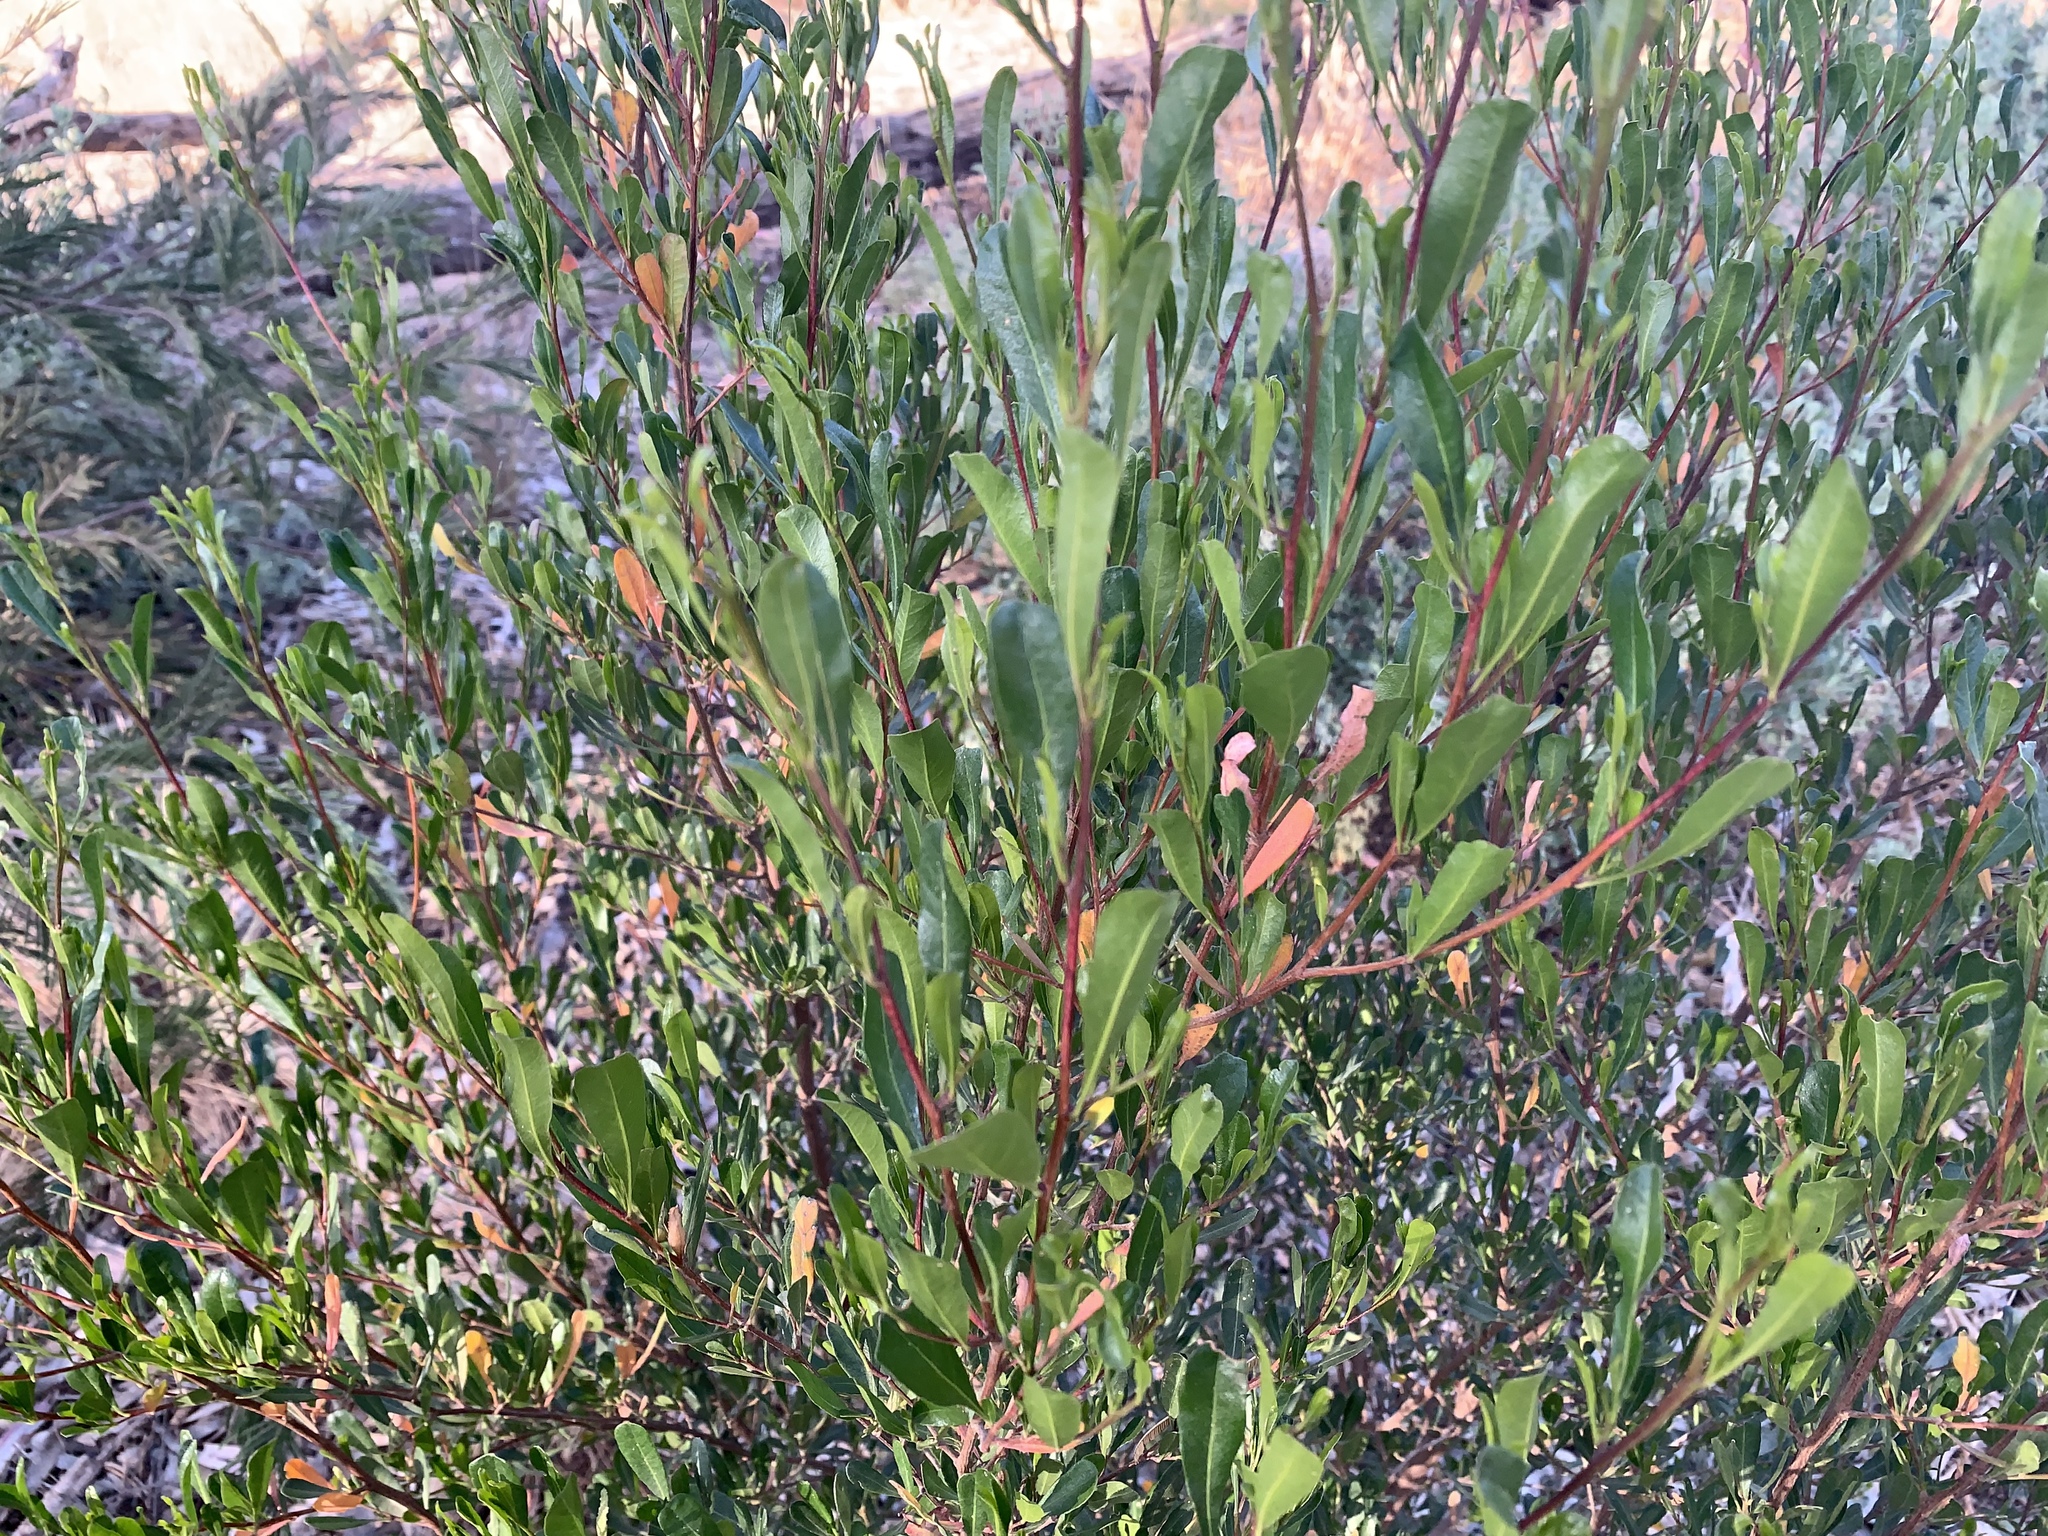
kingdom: Plantae
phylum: Tracheophyta
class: Magnoliopsida
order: Sapindales
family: Sapindaceae
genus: Dodonaea
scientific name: Dodonaea viscosa
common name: Hopbush
